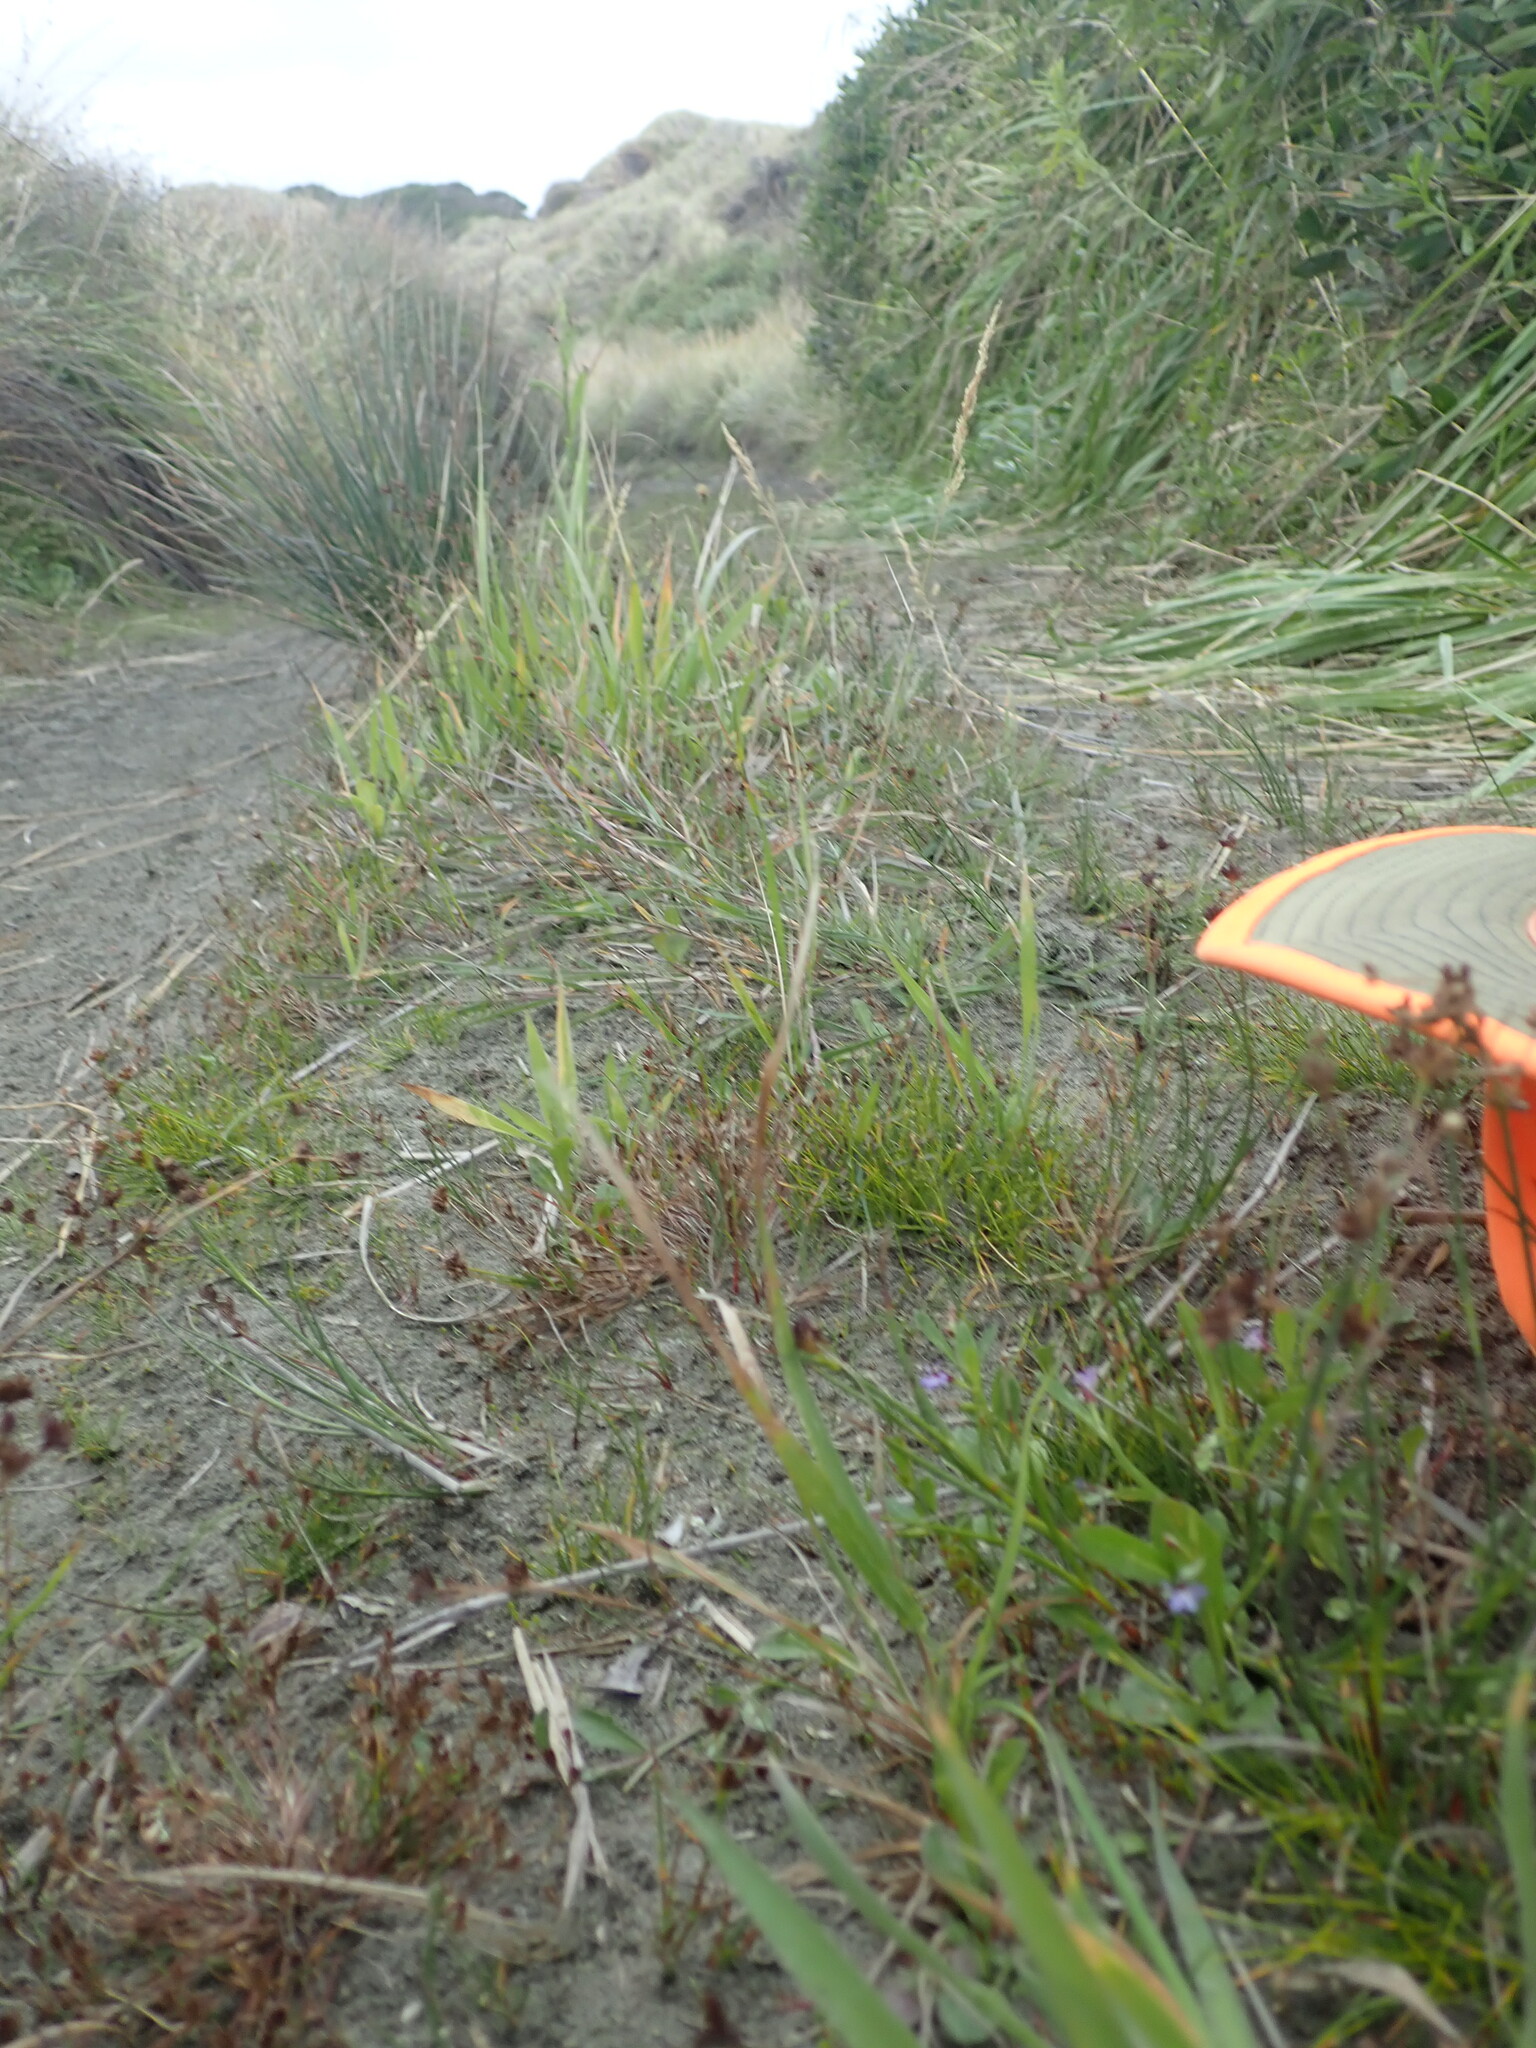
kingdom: Plantae
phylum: Tracheophyta
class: Magnoliopsida
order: Asterales
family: Campanulaceae
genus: Lobelia
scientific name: Lobelia anceps
